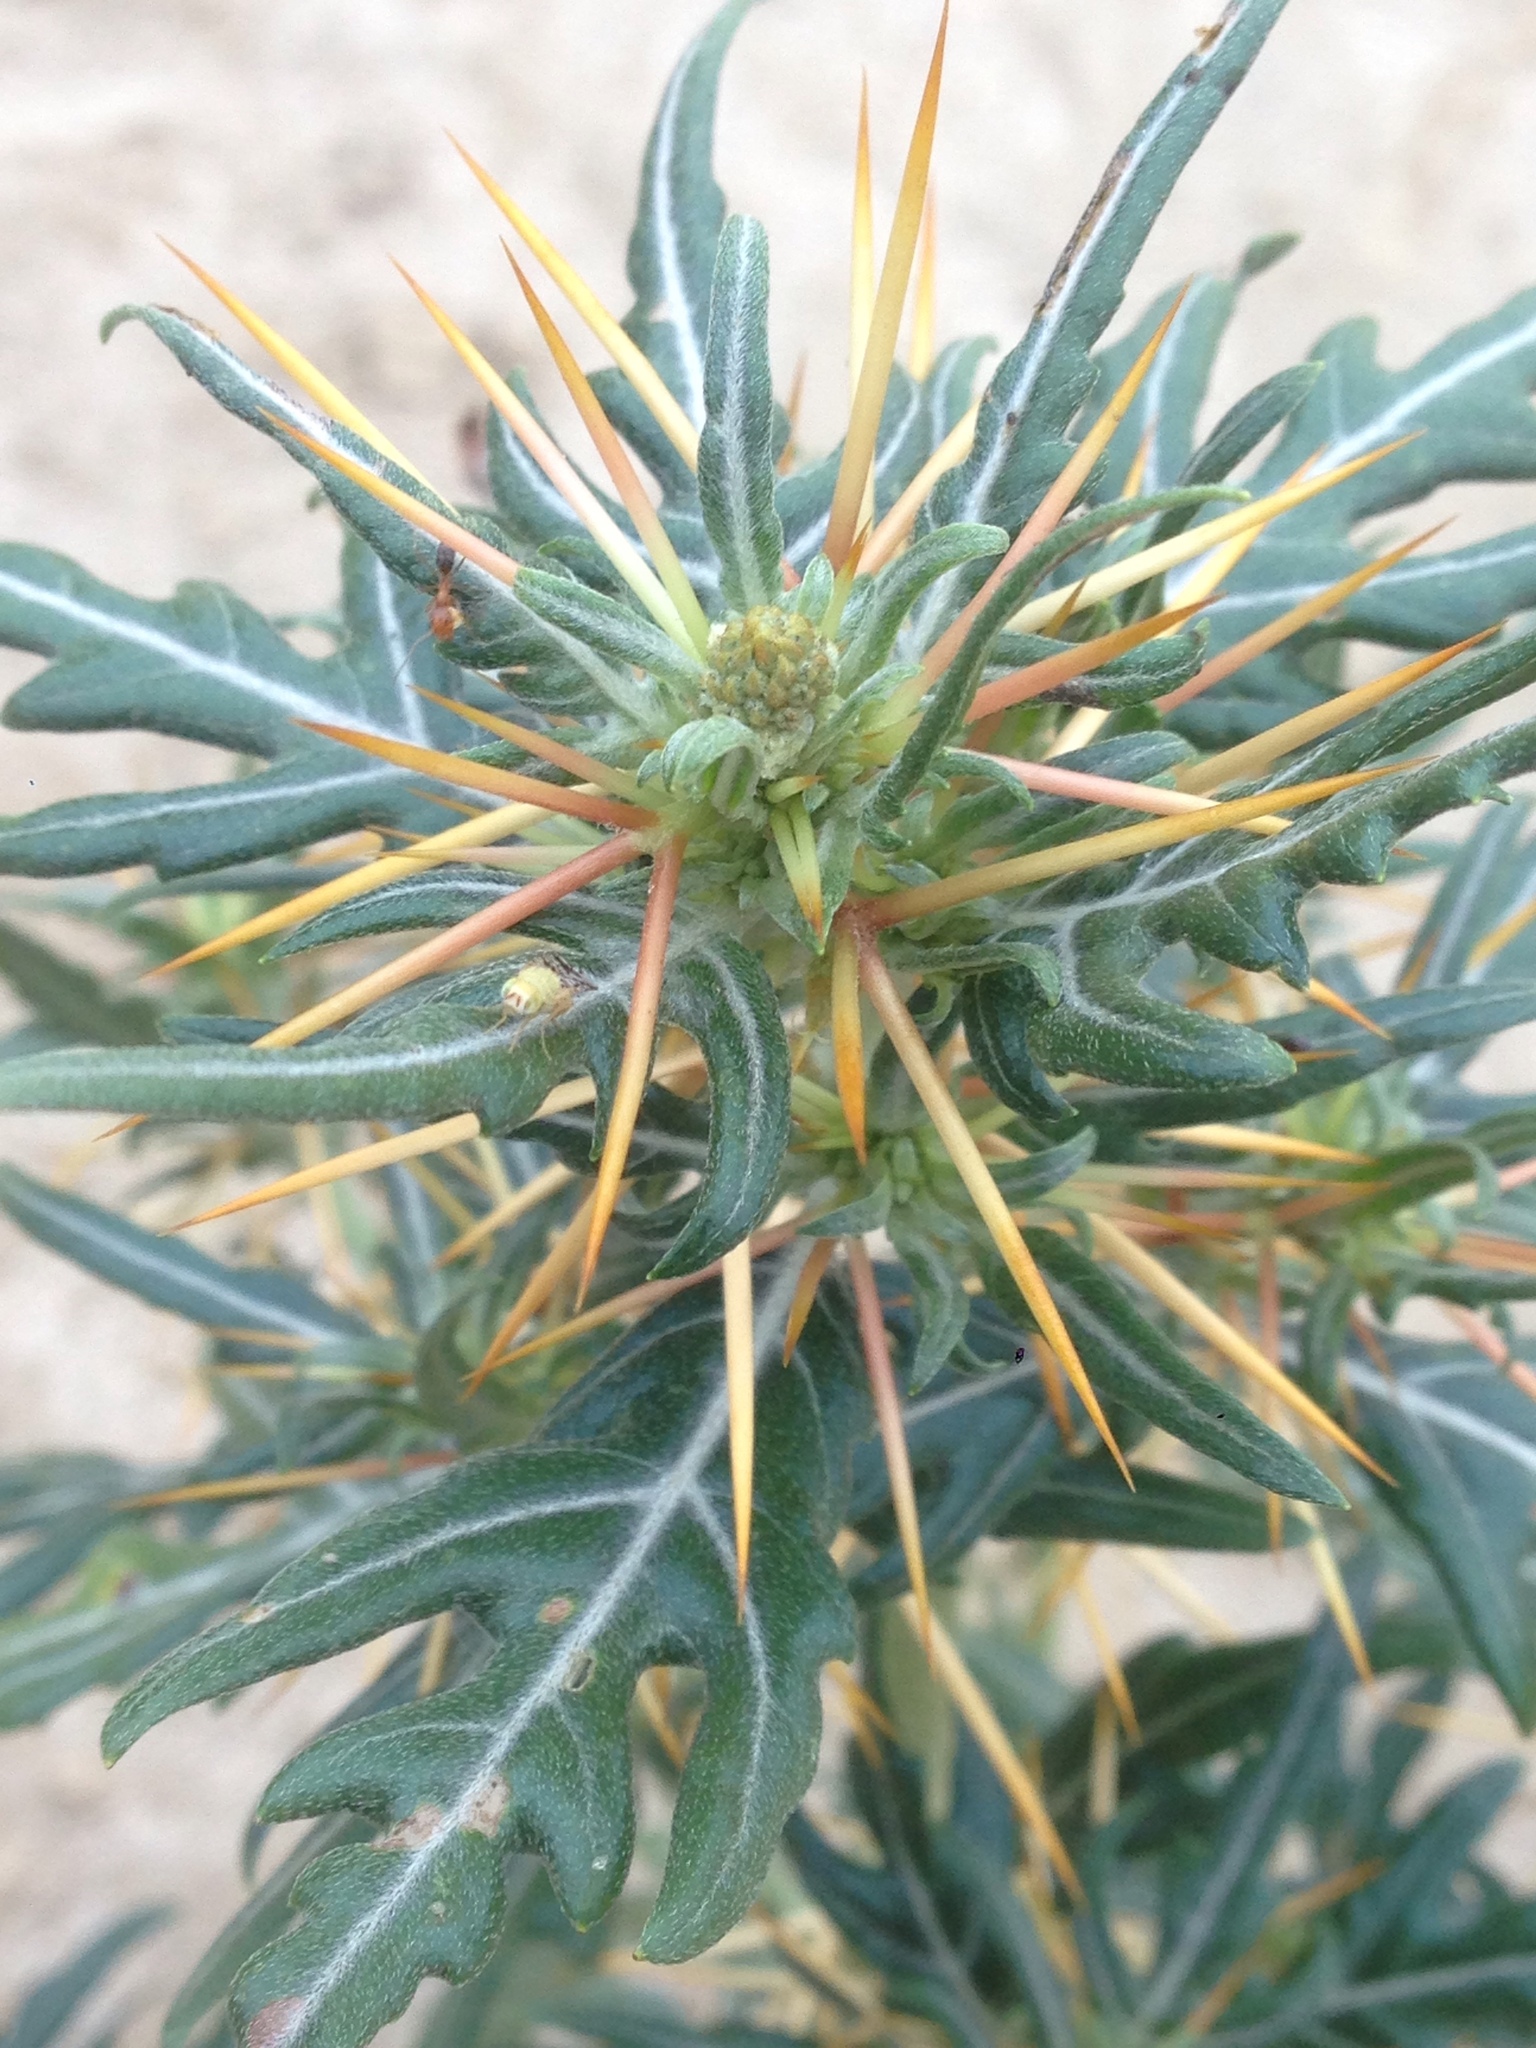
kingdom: Plantae
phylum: Tracheophyta
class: Magnoliopsida
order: Asterales
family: Asteraceae
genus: Xanthium
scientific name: Xanthium spinosum
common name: Spiny cocklebur
